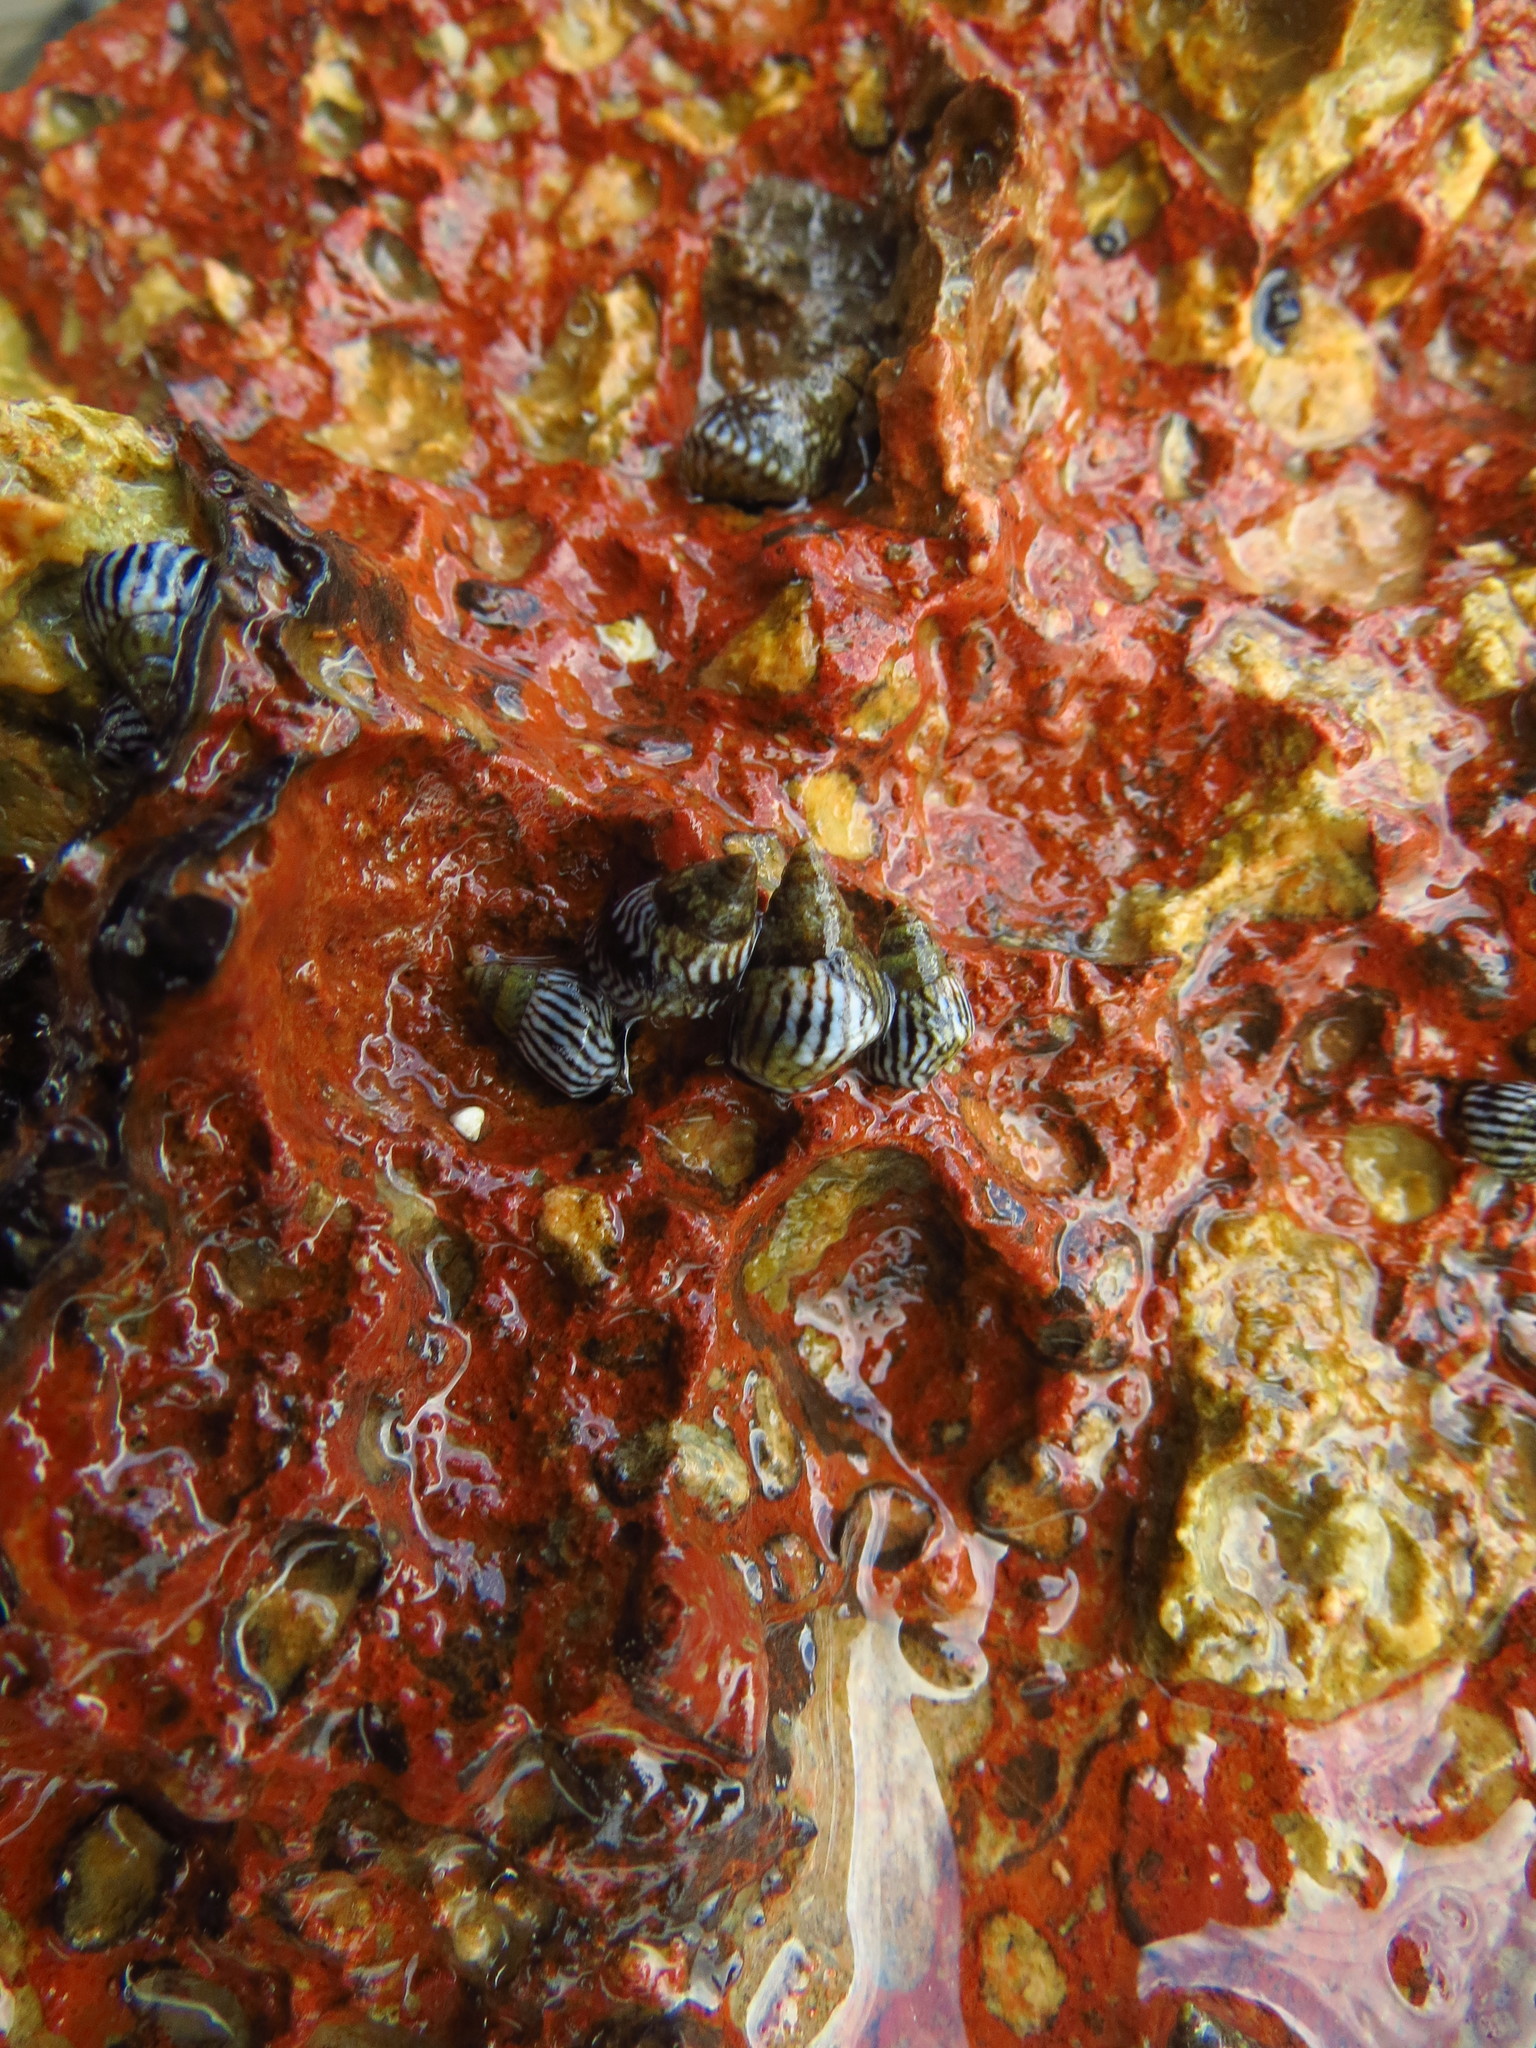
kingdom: Animalia
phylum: Mollusca
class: Gastropoda
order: Littorinimorpha
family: Littorinidae
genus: Echinolittorina
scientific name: Echinolittorina interrupta
